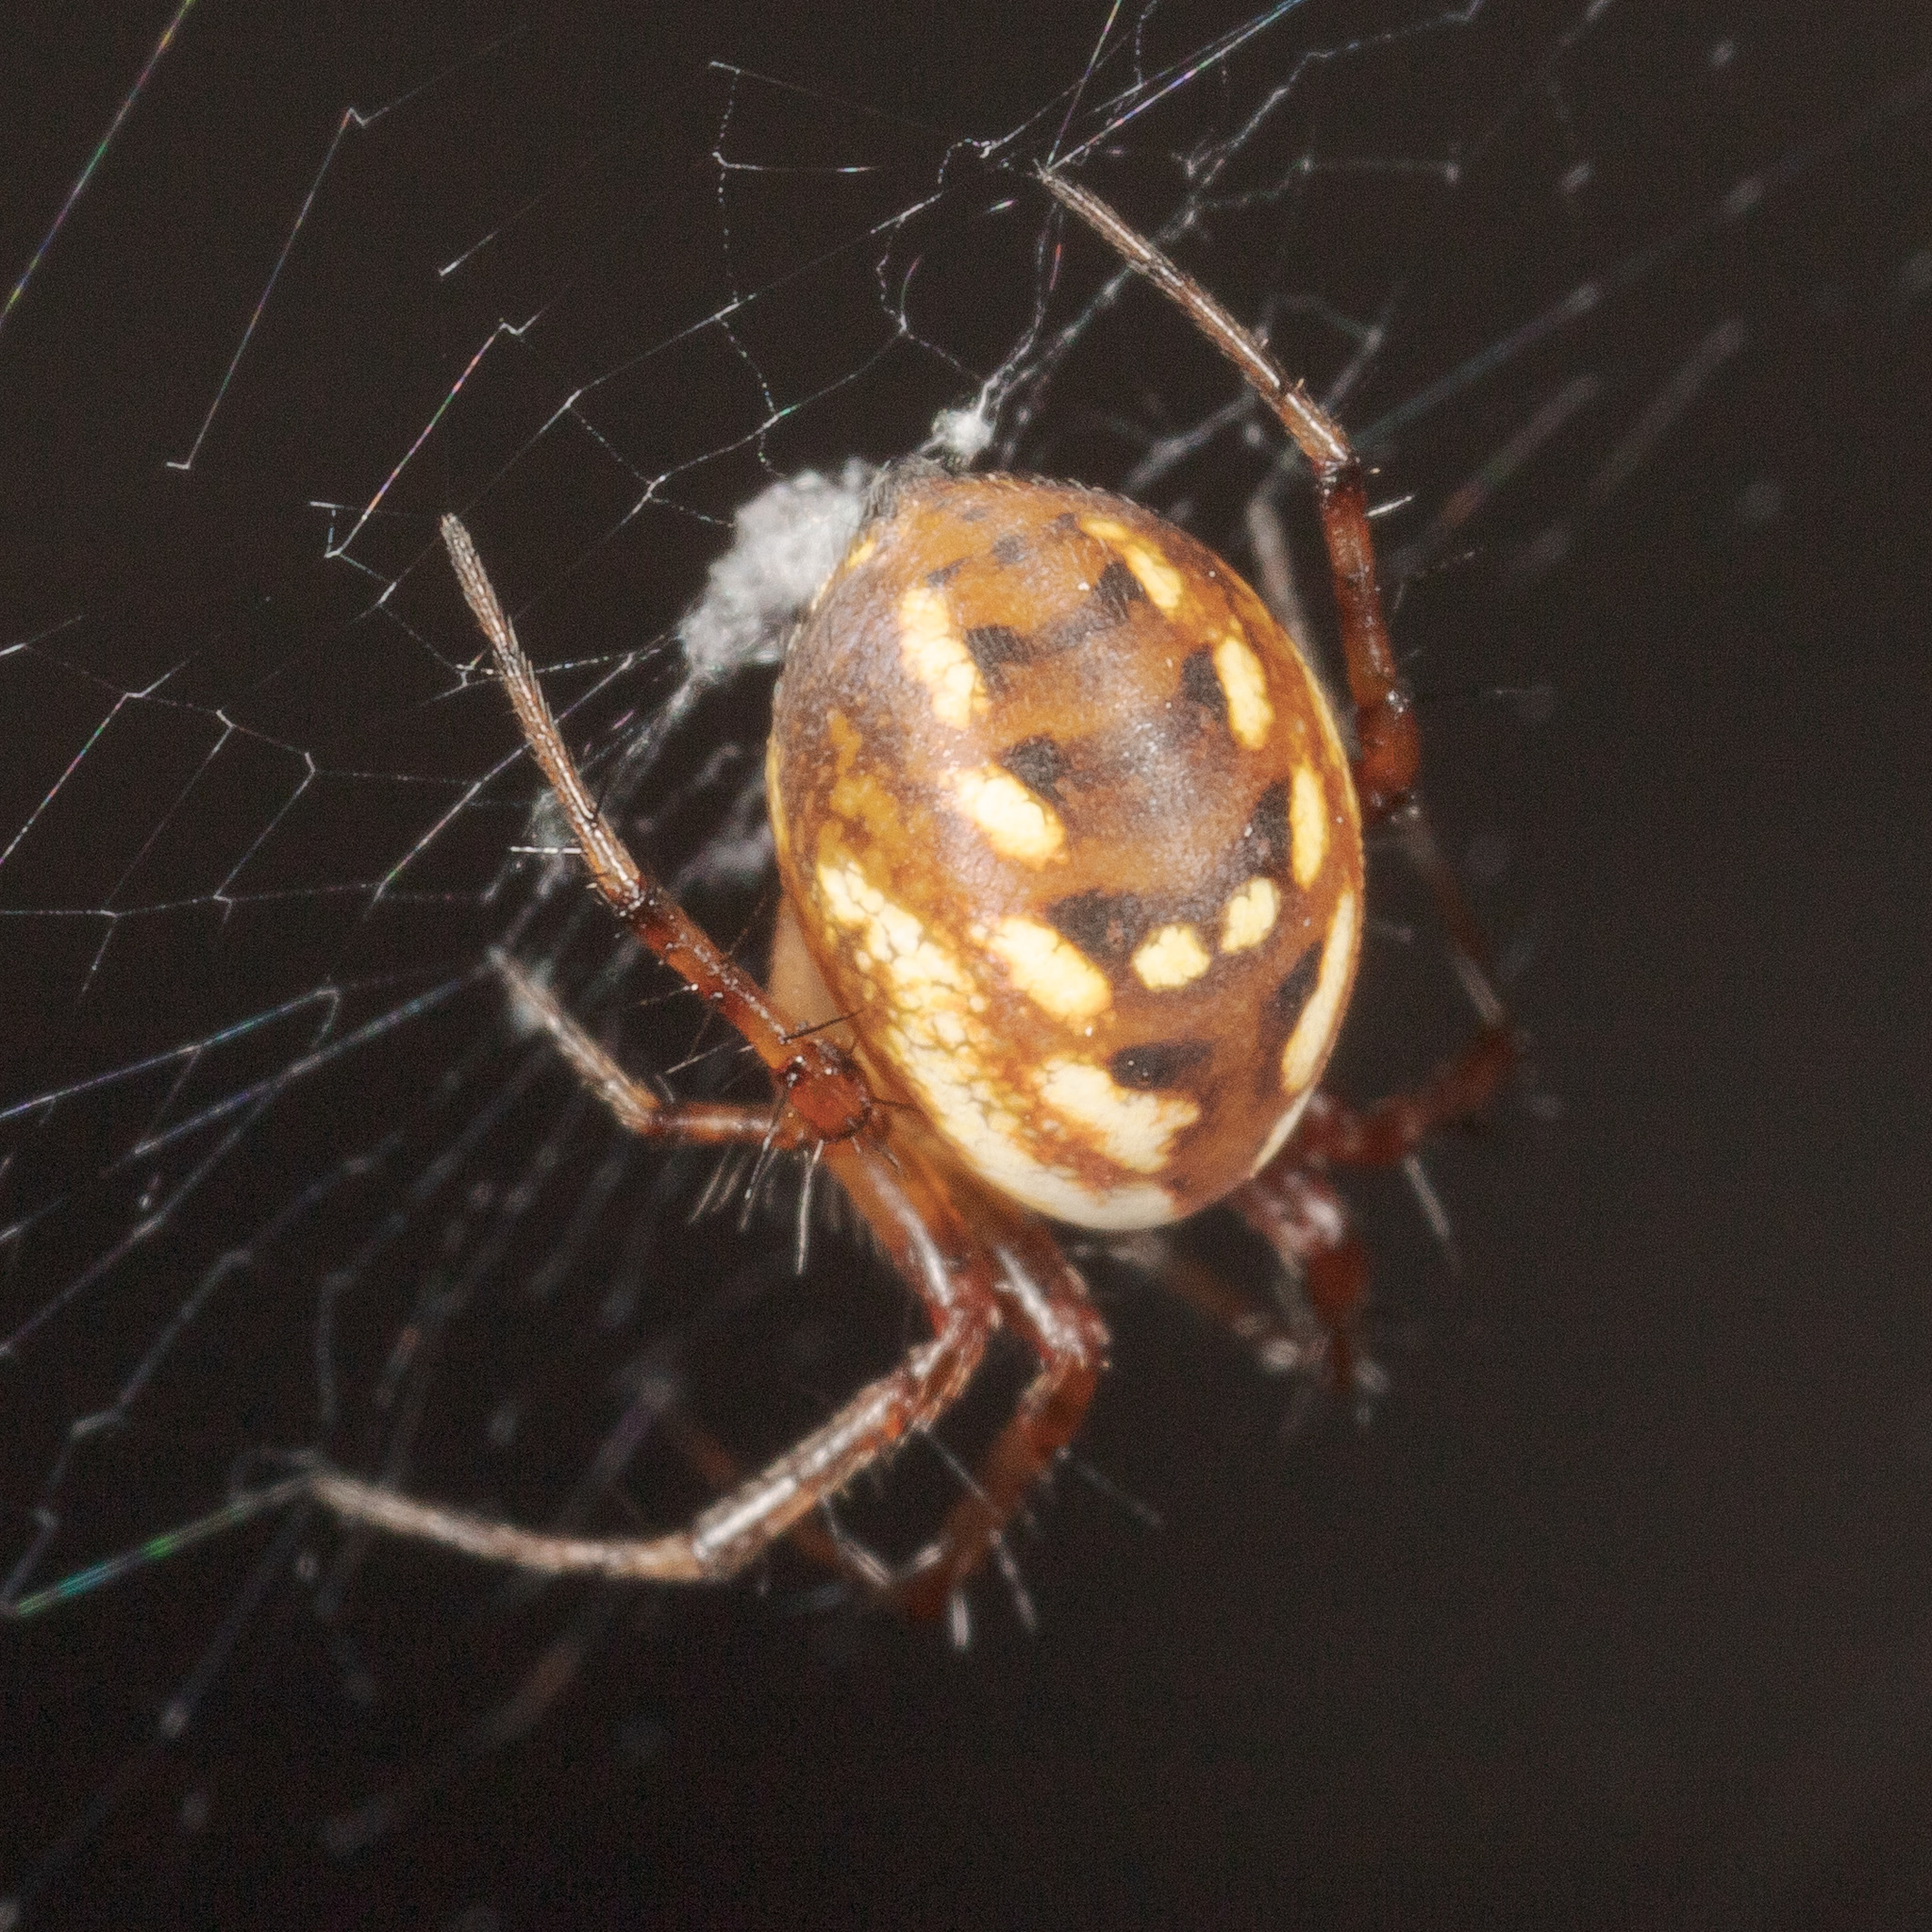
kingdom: Animalia
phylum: Arthropoda
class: Arachnida
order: Araneae
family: Araneidae
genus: Mangora
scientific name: Mangora placida
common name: Tuft-legged orbweaver
